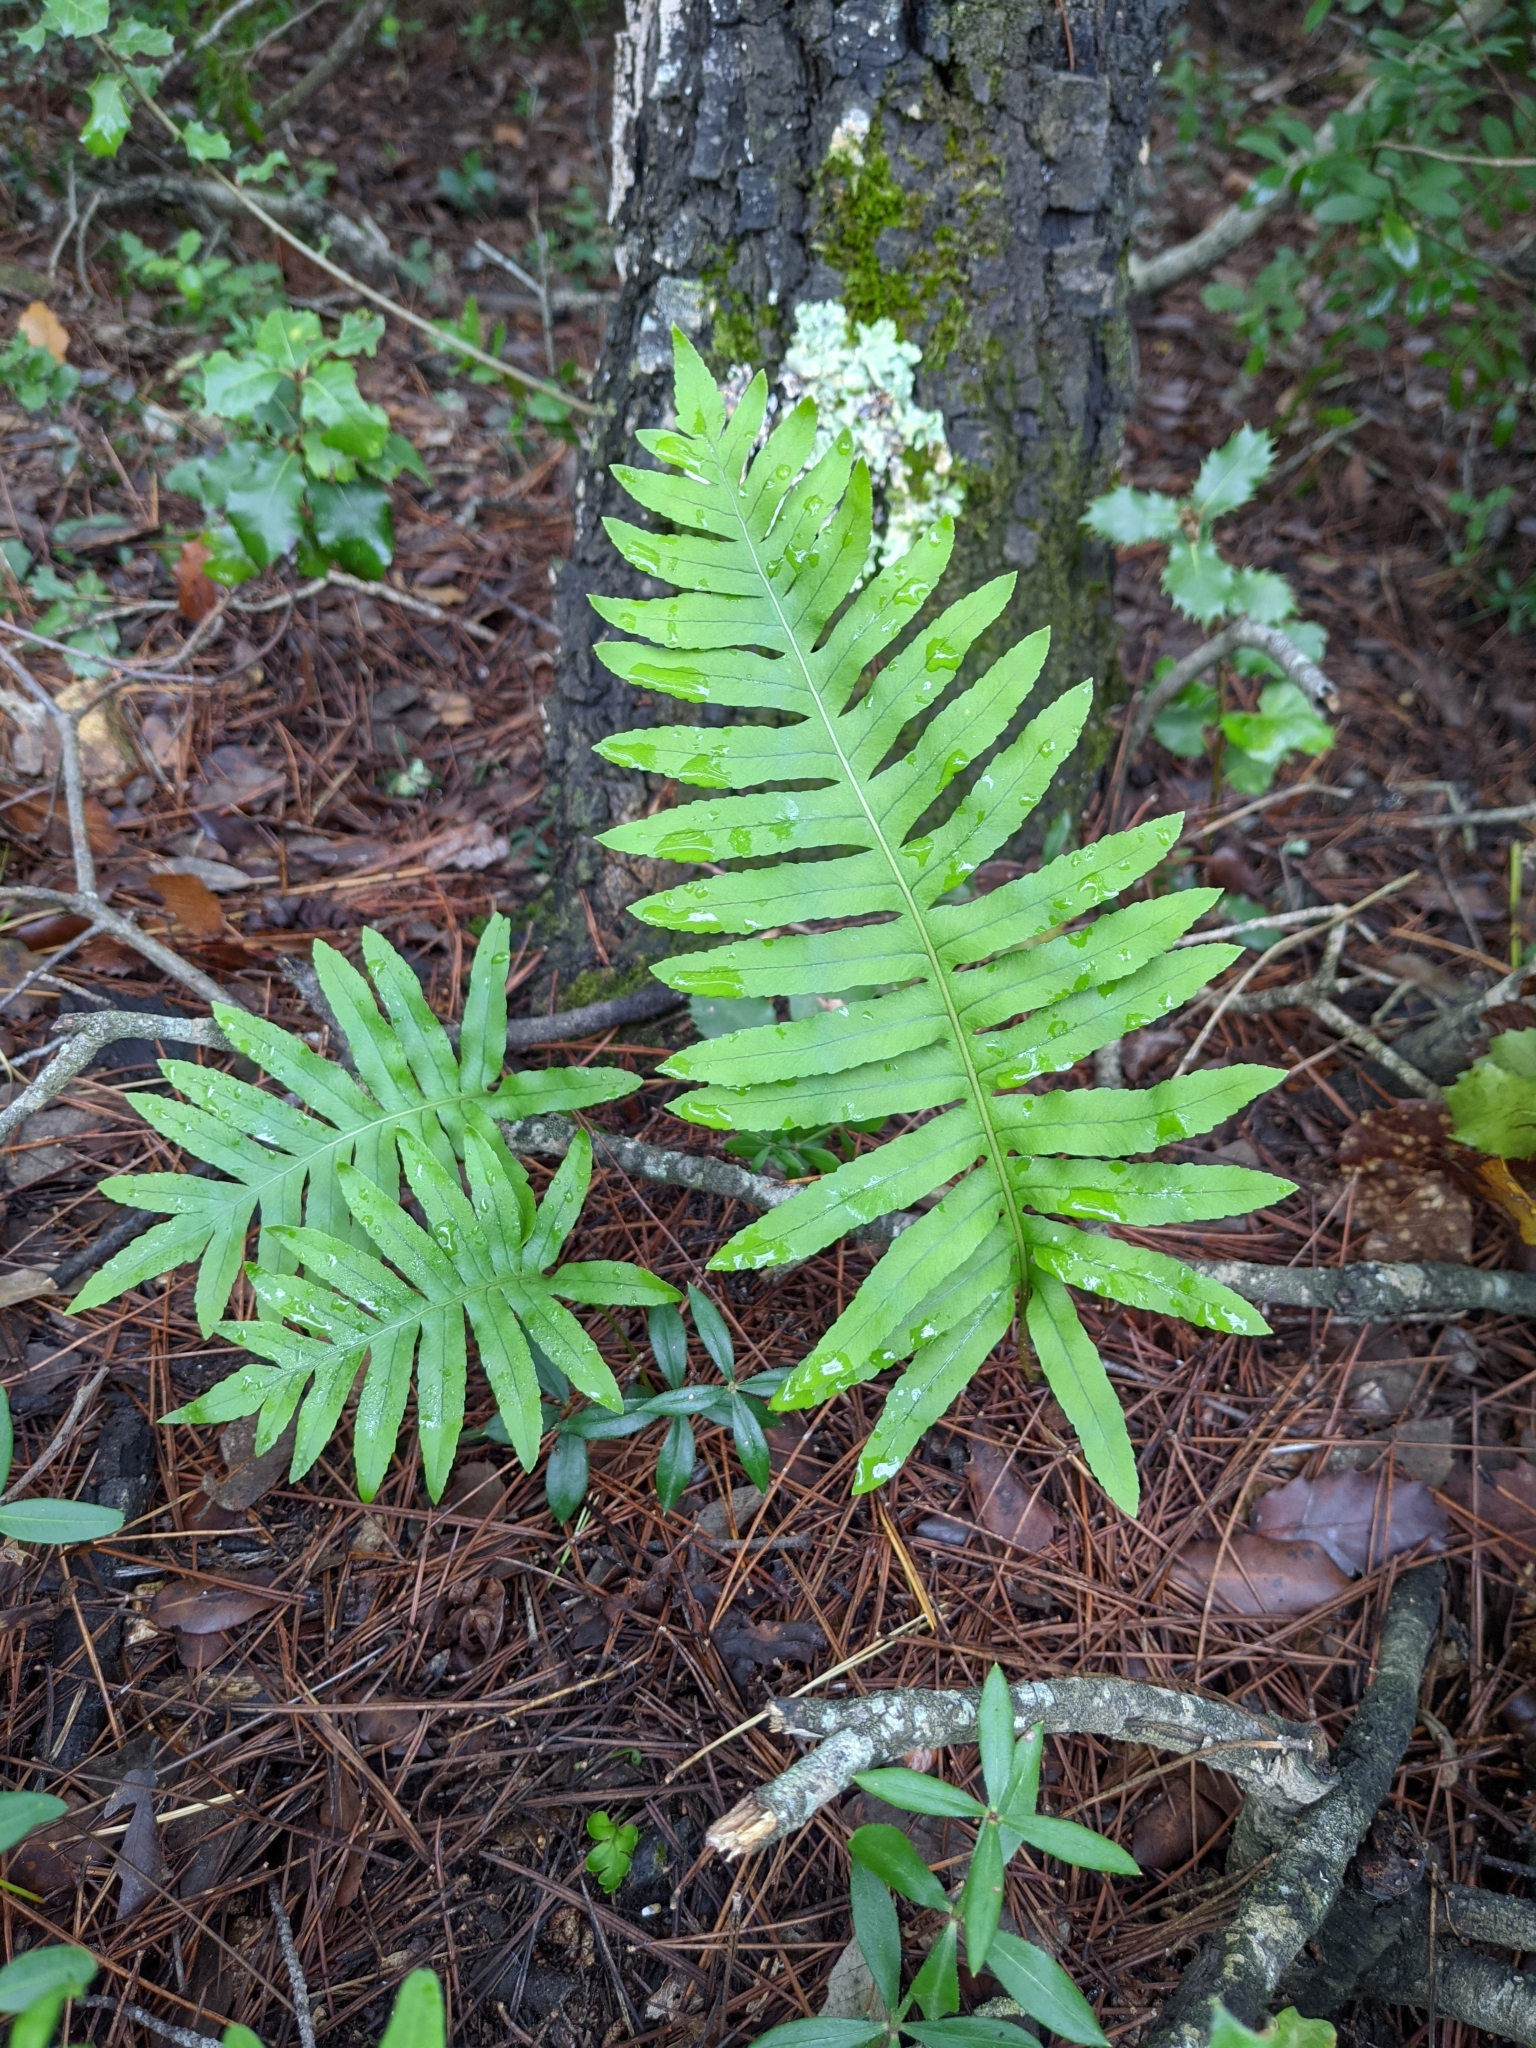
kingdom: Plantae
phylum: Tracheophyta
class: Polypodiopsida
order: Polypodiales
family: Polypodiaceae
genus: Polypodium
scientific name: Polypodium cambricum
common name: Southern polypody
